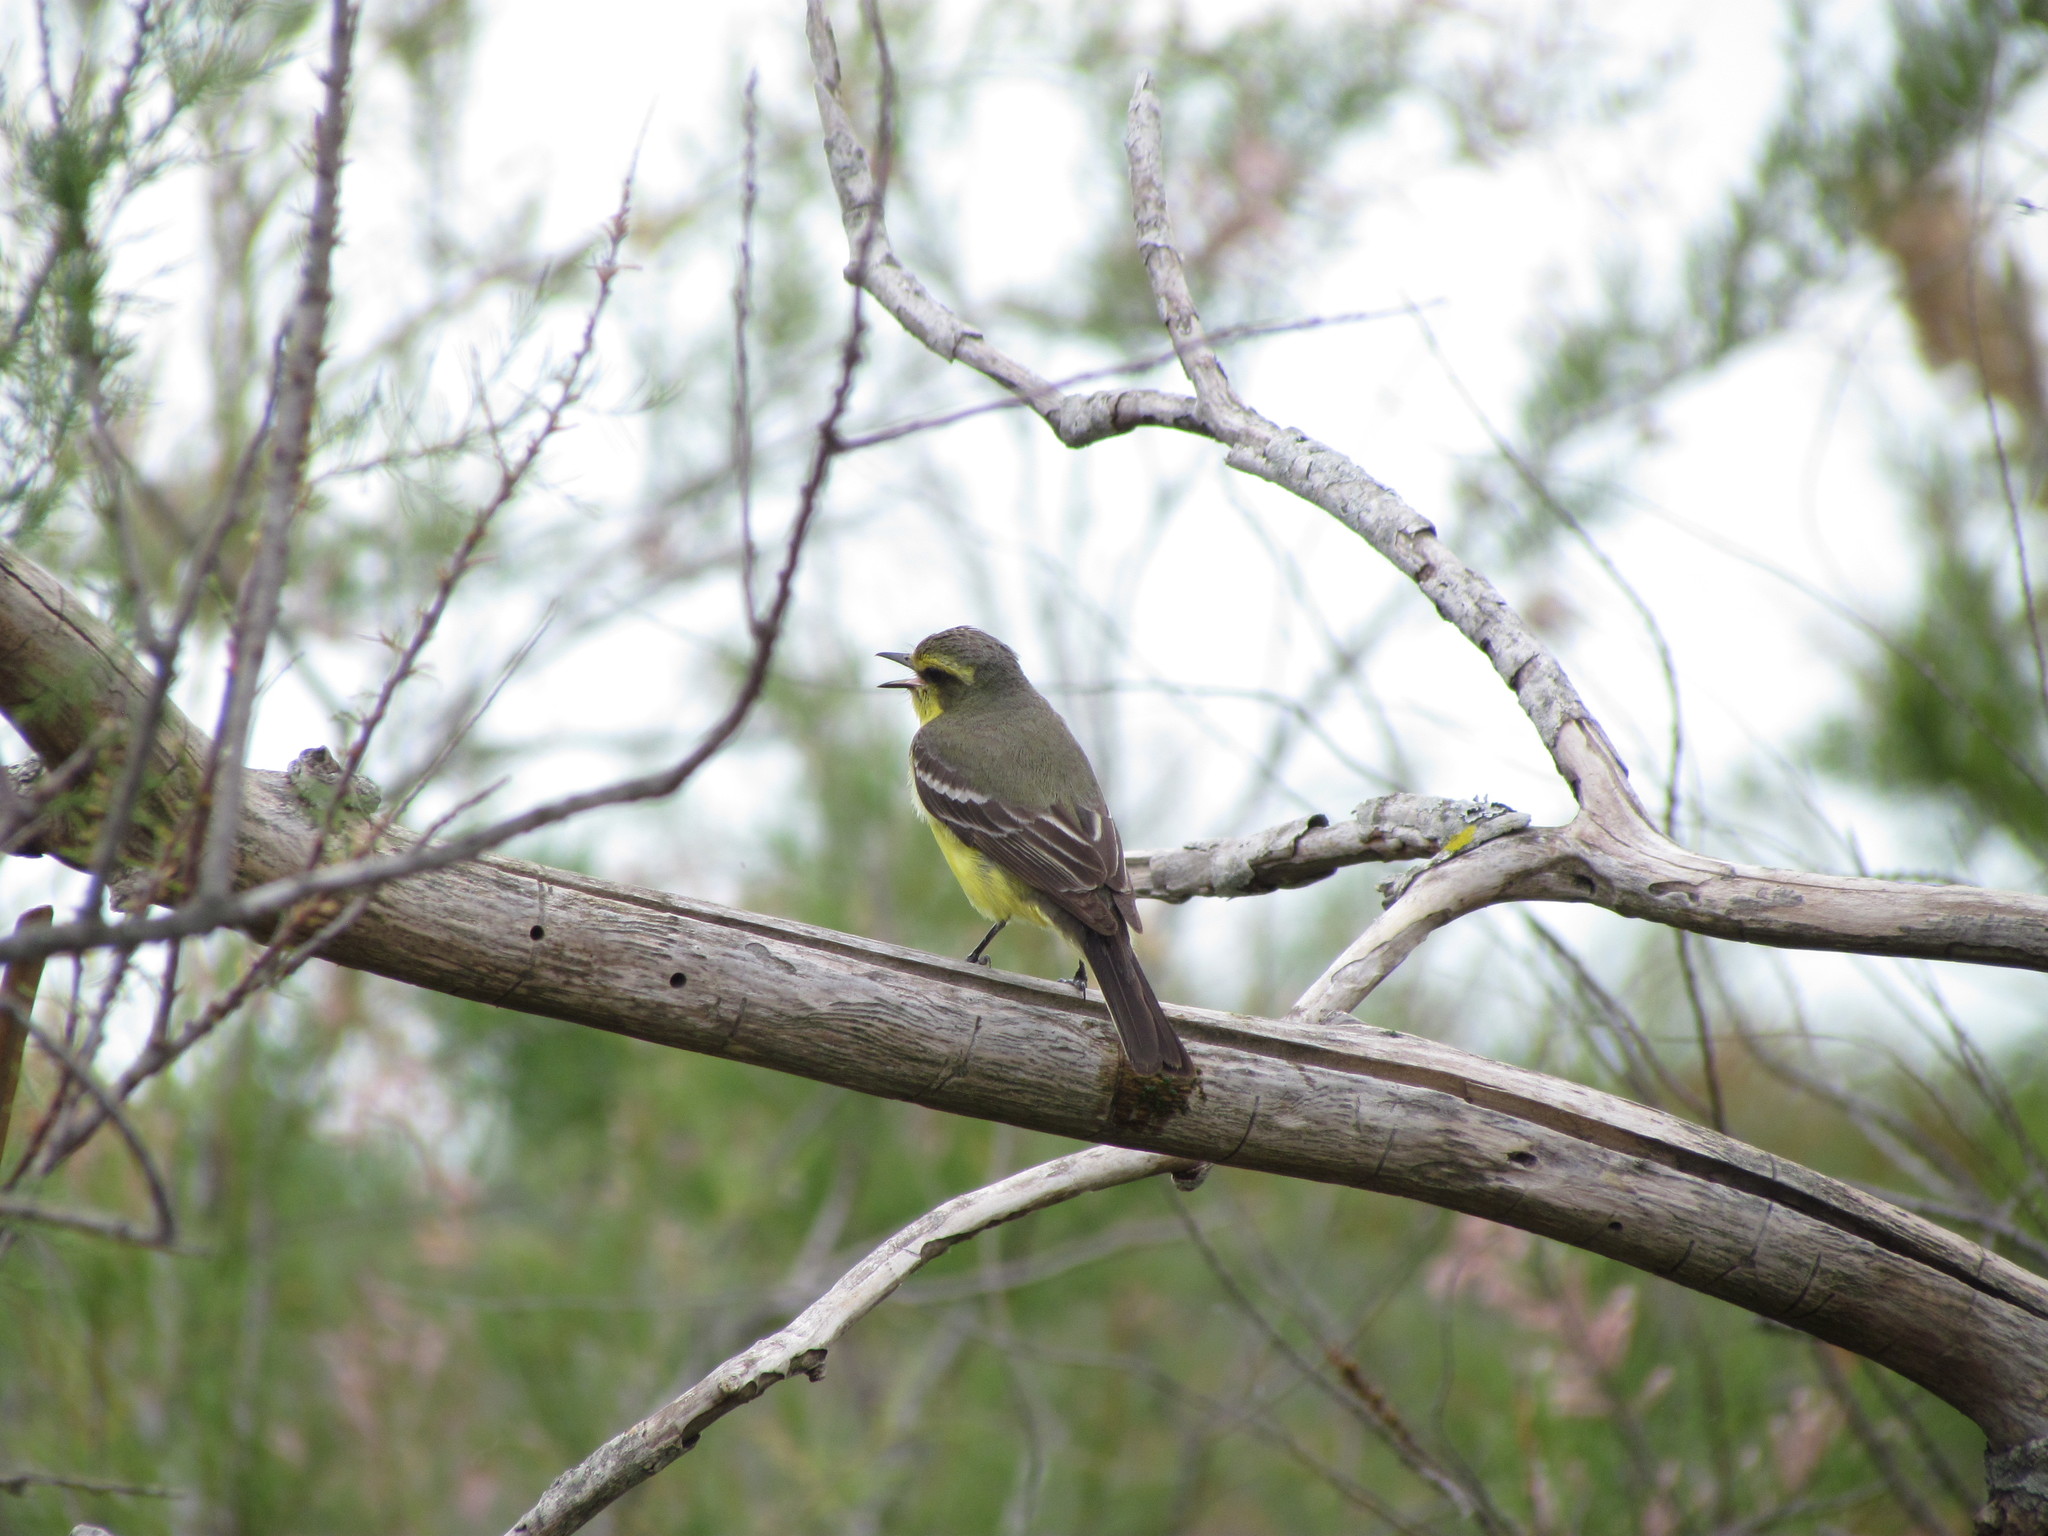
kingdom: Animalia
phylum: Chordata
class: Aves
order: Passeriformes
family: Tyrannidae
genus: Satrapa
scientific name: Satrapa icterophrys
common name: Yellow-browed tyrant
